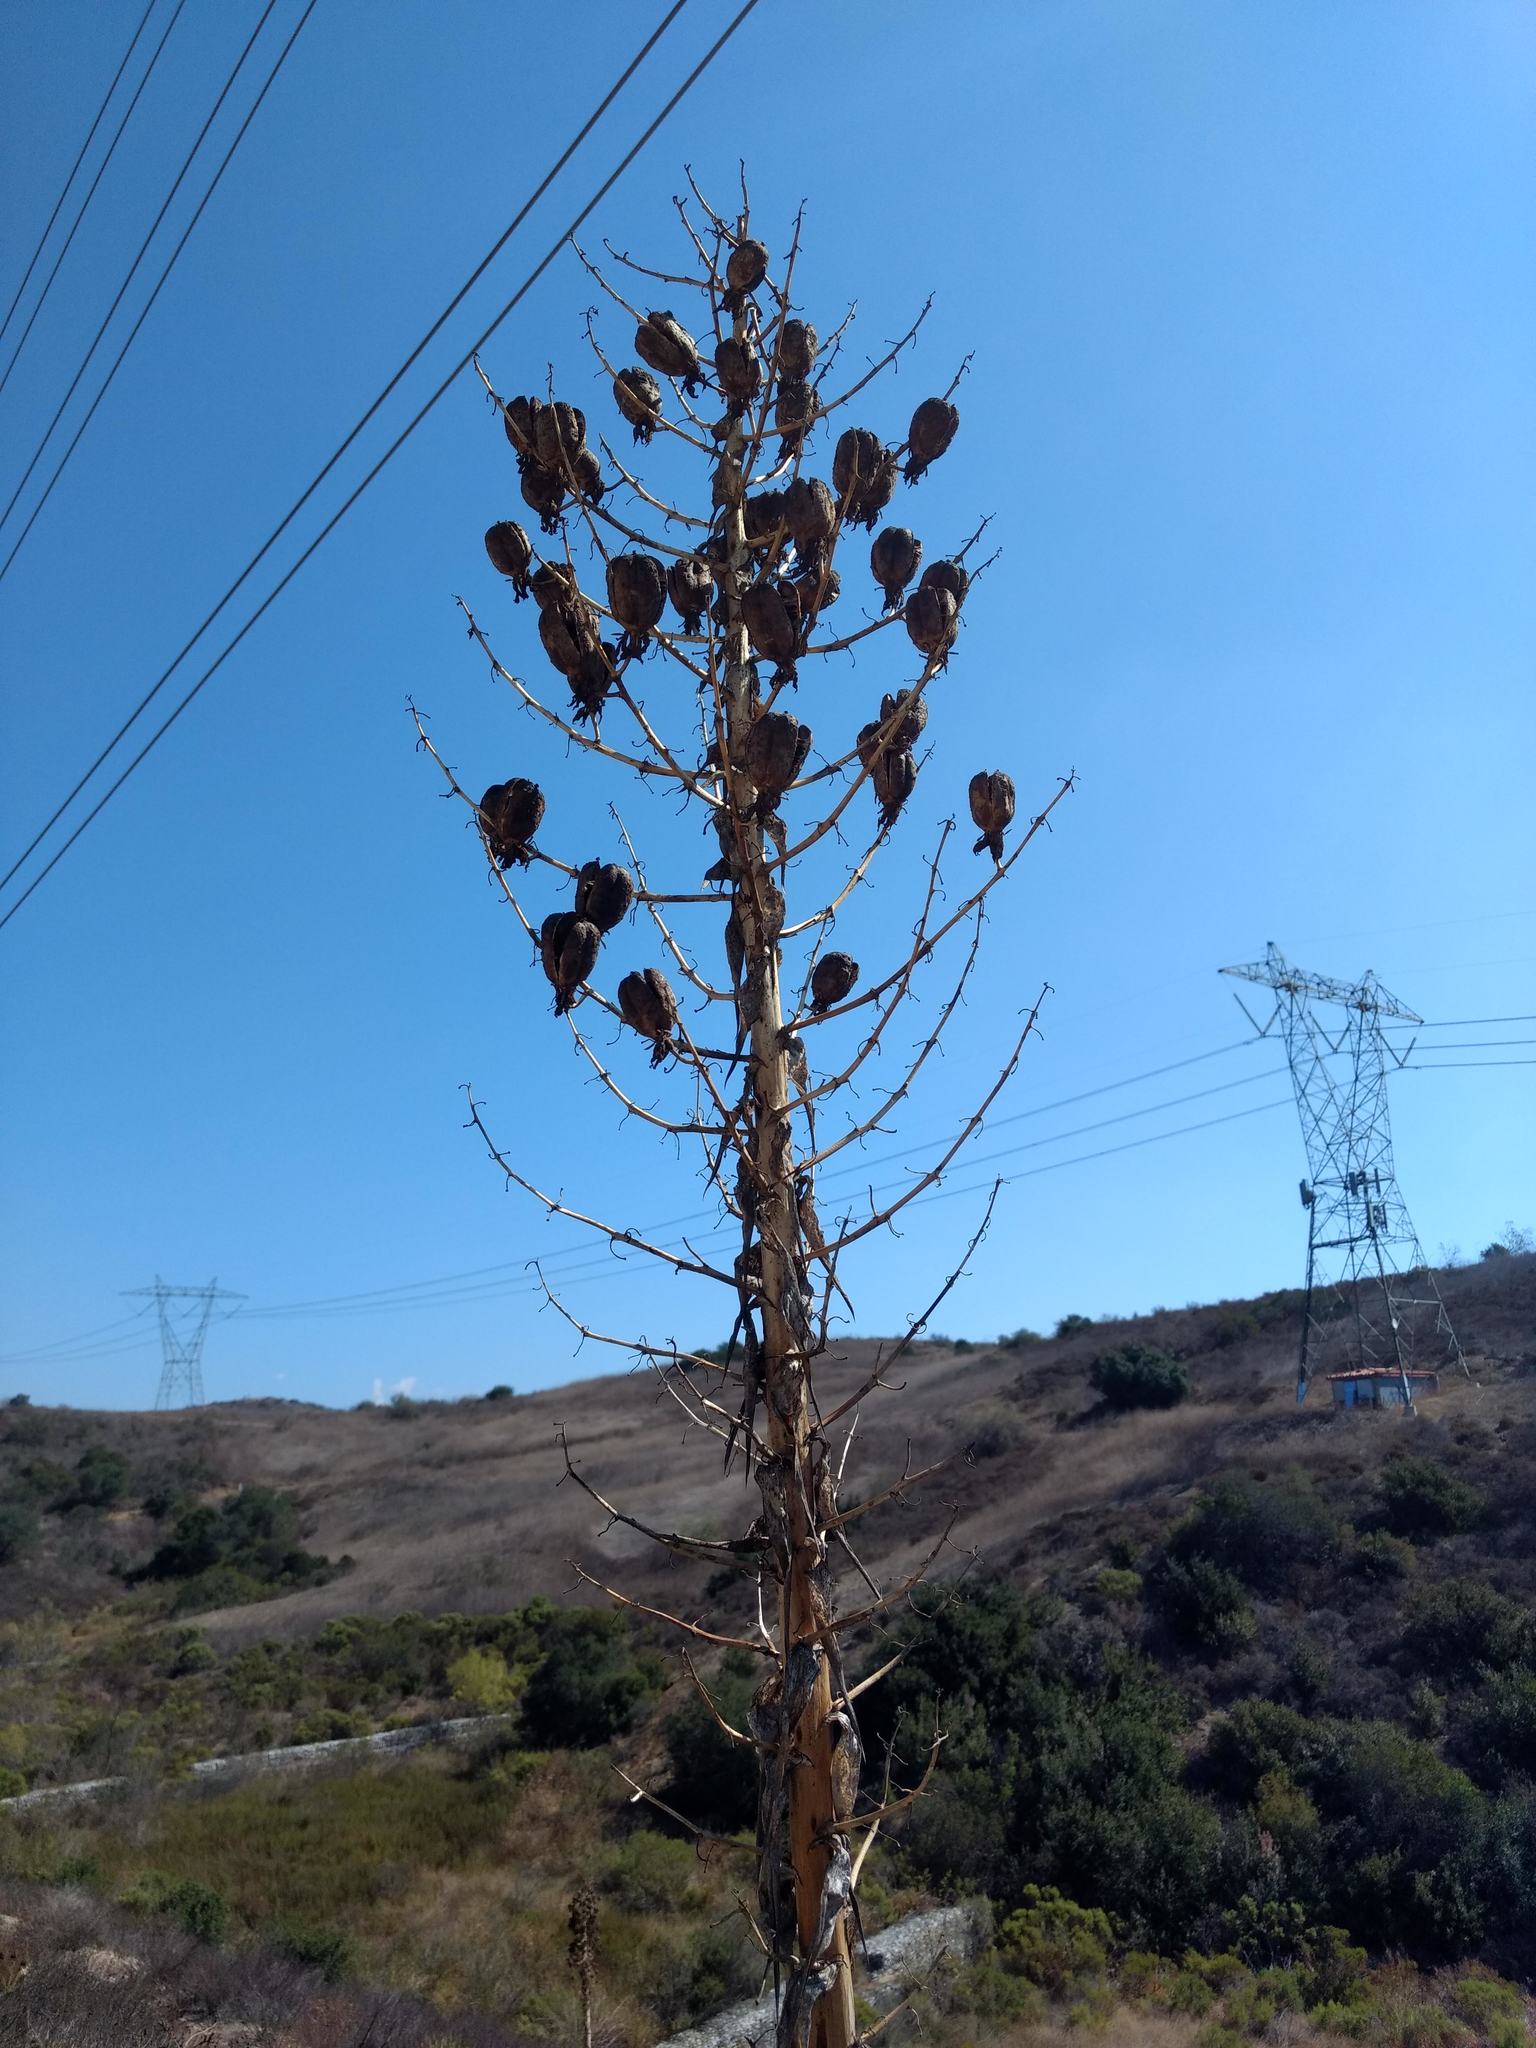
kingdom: Plantae
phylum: Tracheophyta
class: Liliopsida
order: Asparagales
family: Asparagaceae
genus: Hesperoyucca
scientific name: Hesperoyucca whipplei
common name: Our lord's-candle
